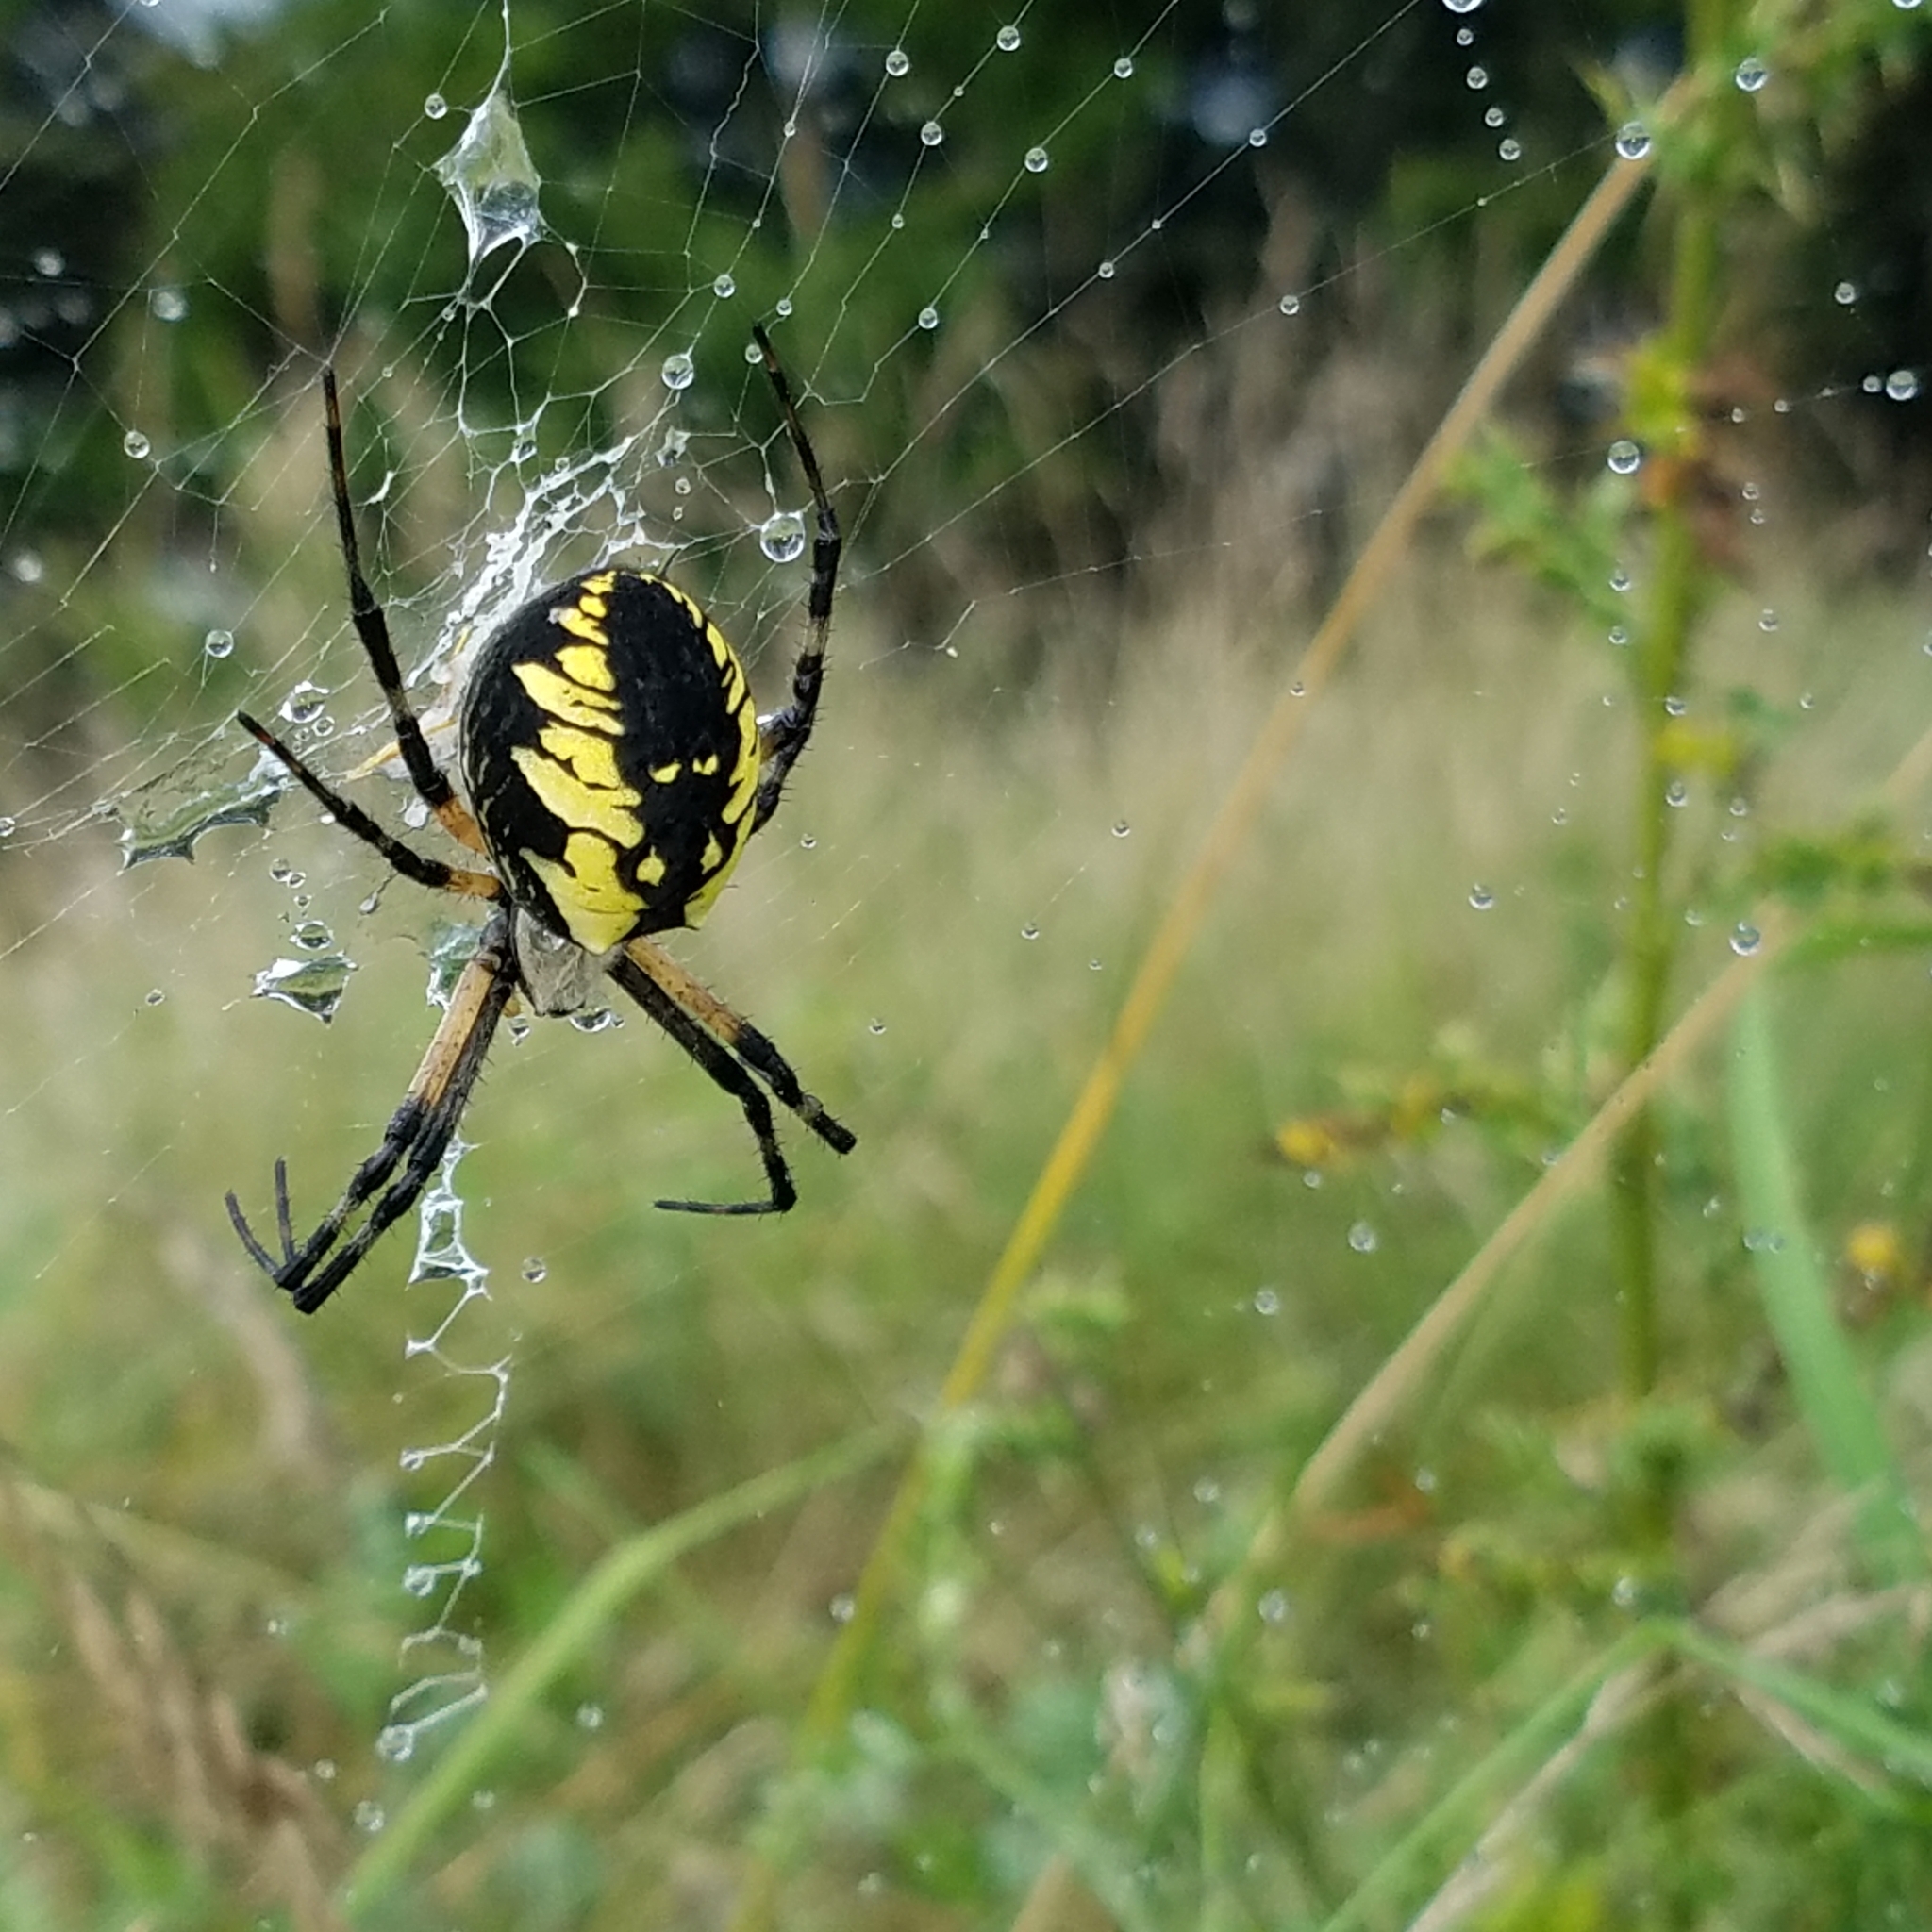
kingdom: Animalia
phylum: Arthropoda
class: Arachnida
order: Araneae
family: Araneidae
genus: Argiope
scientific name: Argiope aurantia
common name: Orb weavers
